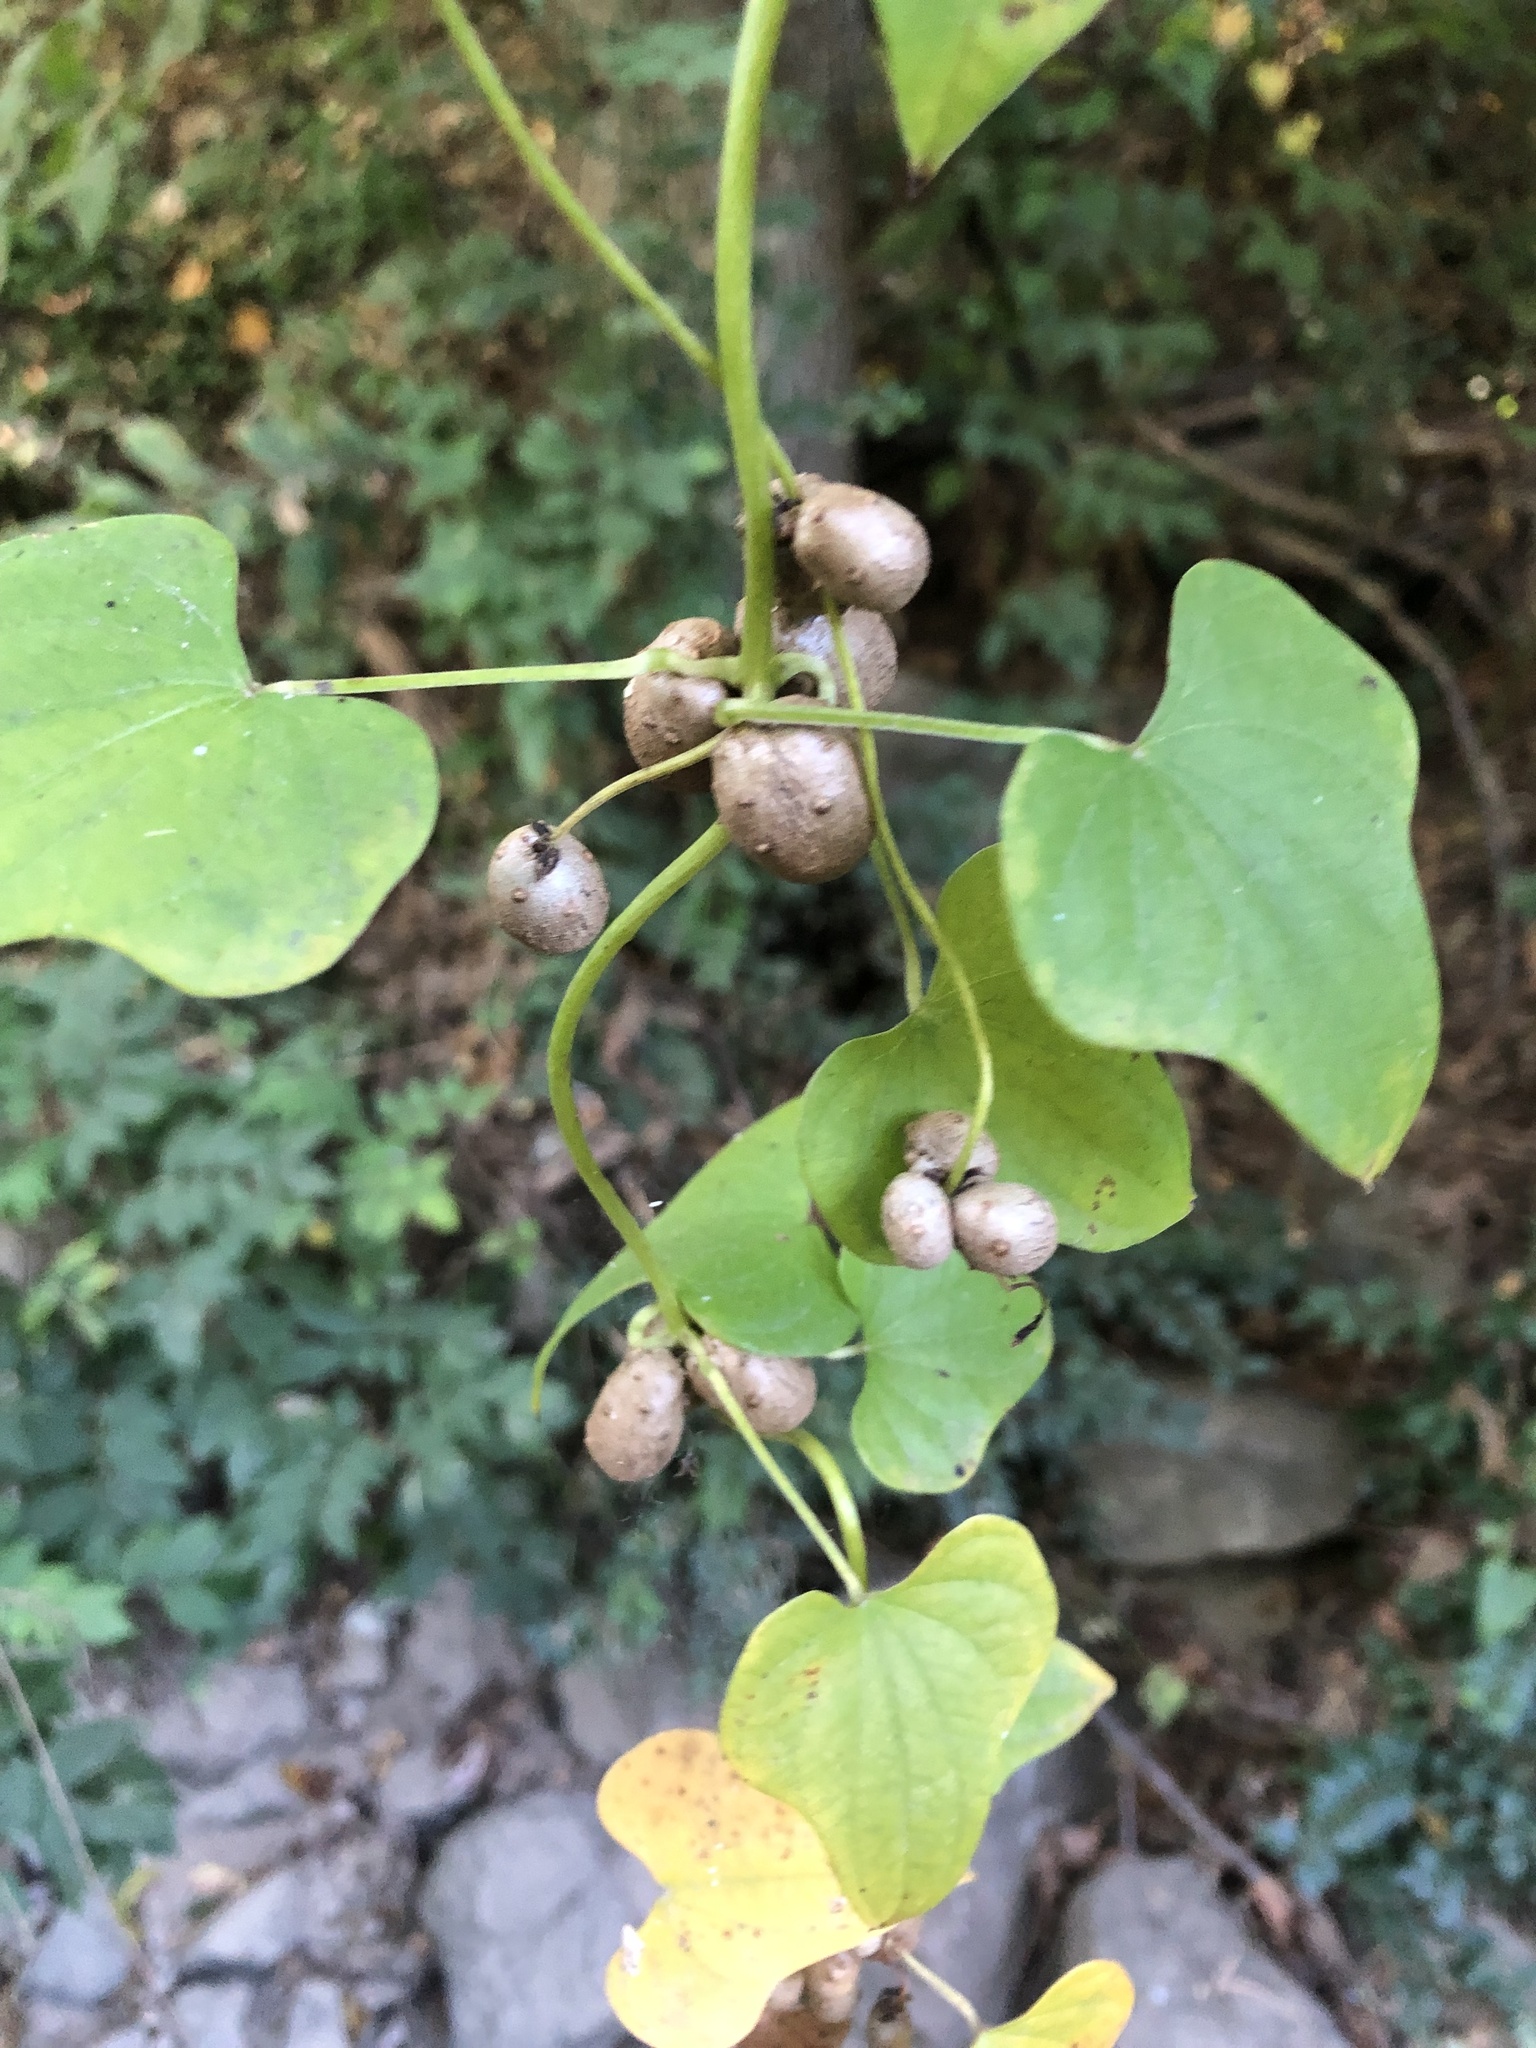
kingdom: Plantae
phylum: Tracheophyta
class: Liliopsida
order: Dioscoreales
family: Dioscoreaceae
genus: Dioscorea
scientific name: Dioscorea polystachya
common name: Chinese yam
